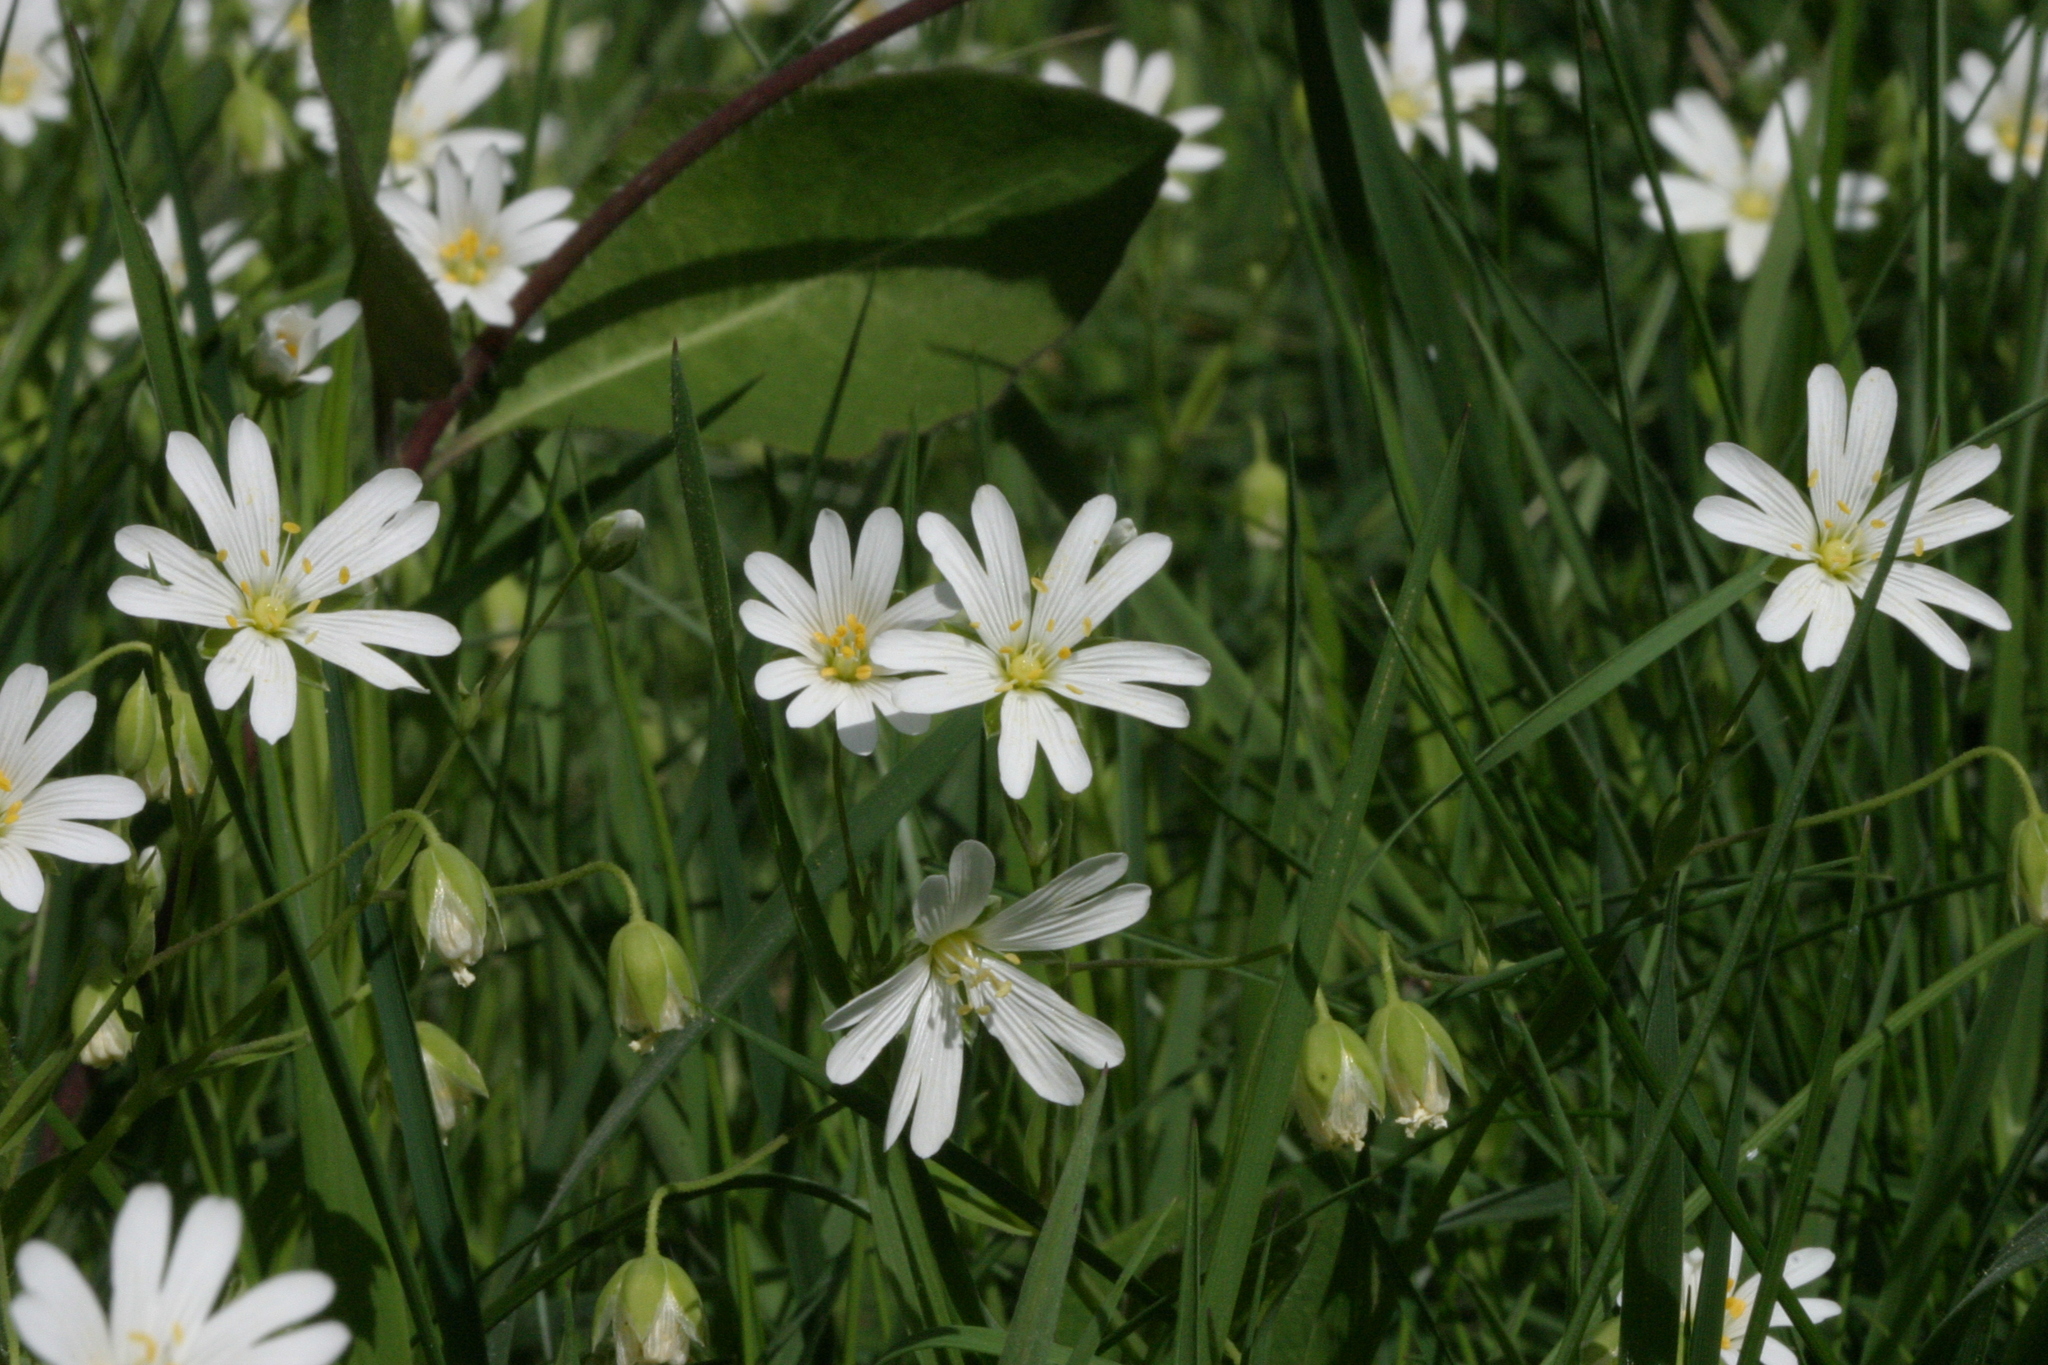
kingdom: Plantae
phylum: Tracheophyta
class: Magnoliopsida
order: Caryophyllales
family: Caryophyllaceae
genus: Rabelera
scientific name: Rabelera holostea
